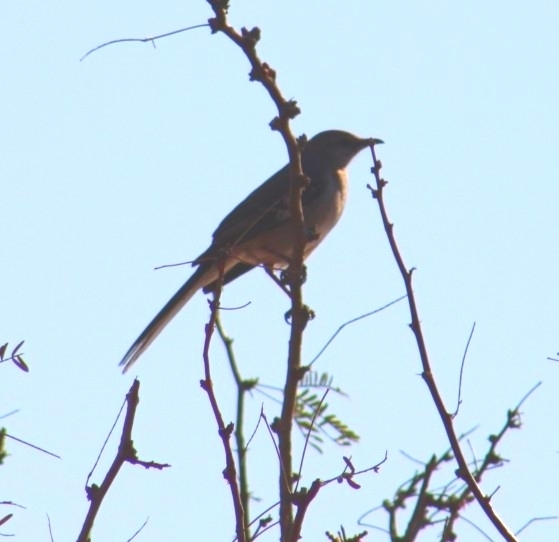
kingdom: Animalia
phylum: Chordata
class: Aves
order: Passeriformes
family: Mimidae
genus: Mimus
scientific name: Mimus polyglottos
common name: Northern mockingbird
